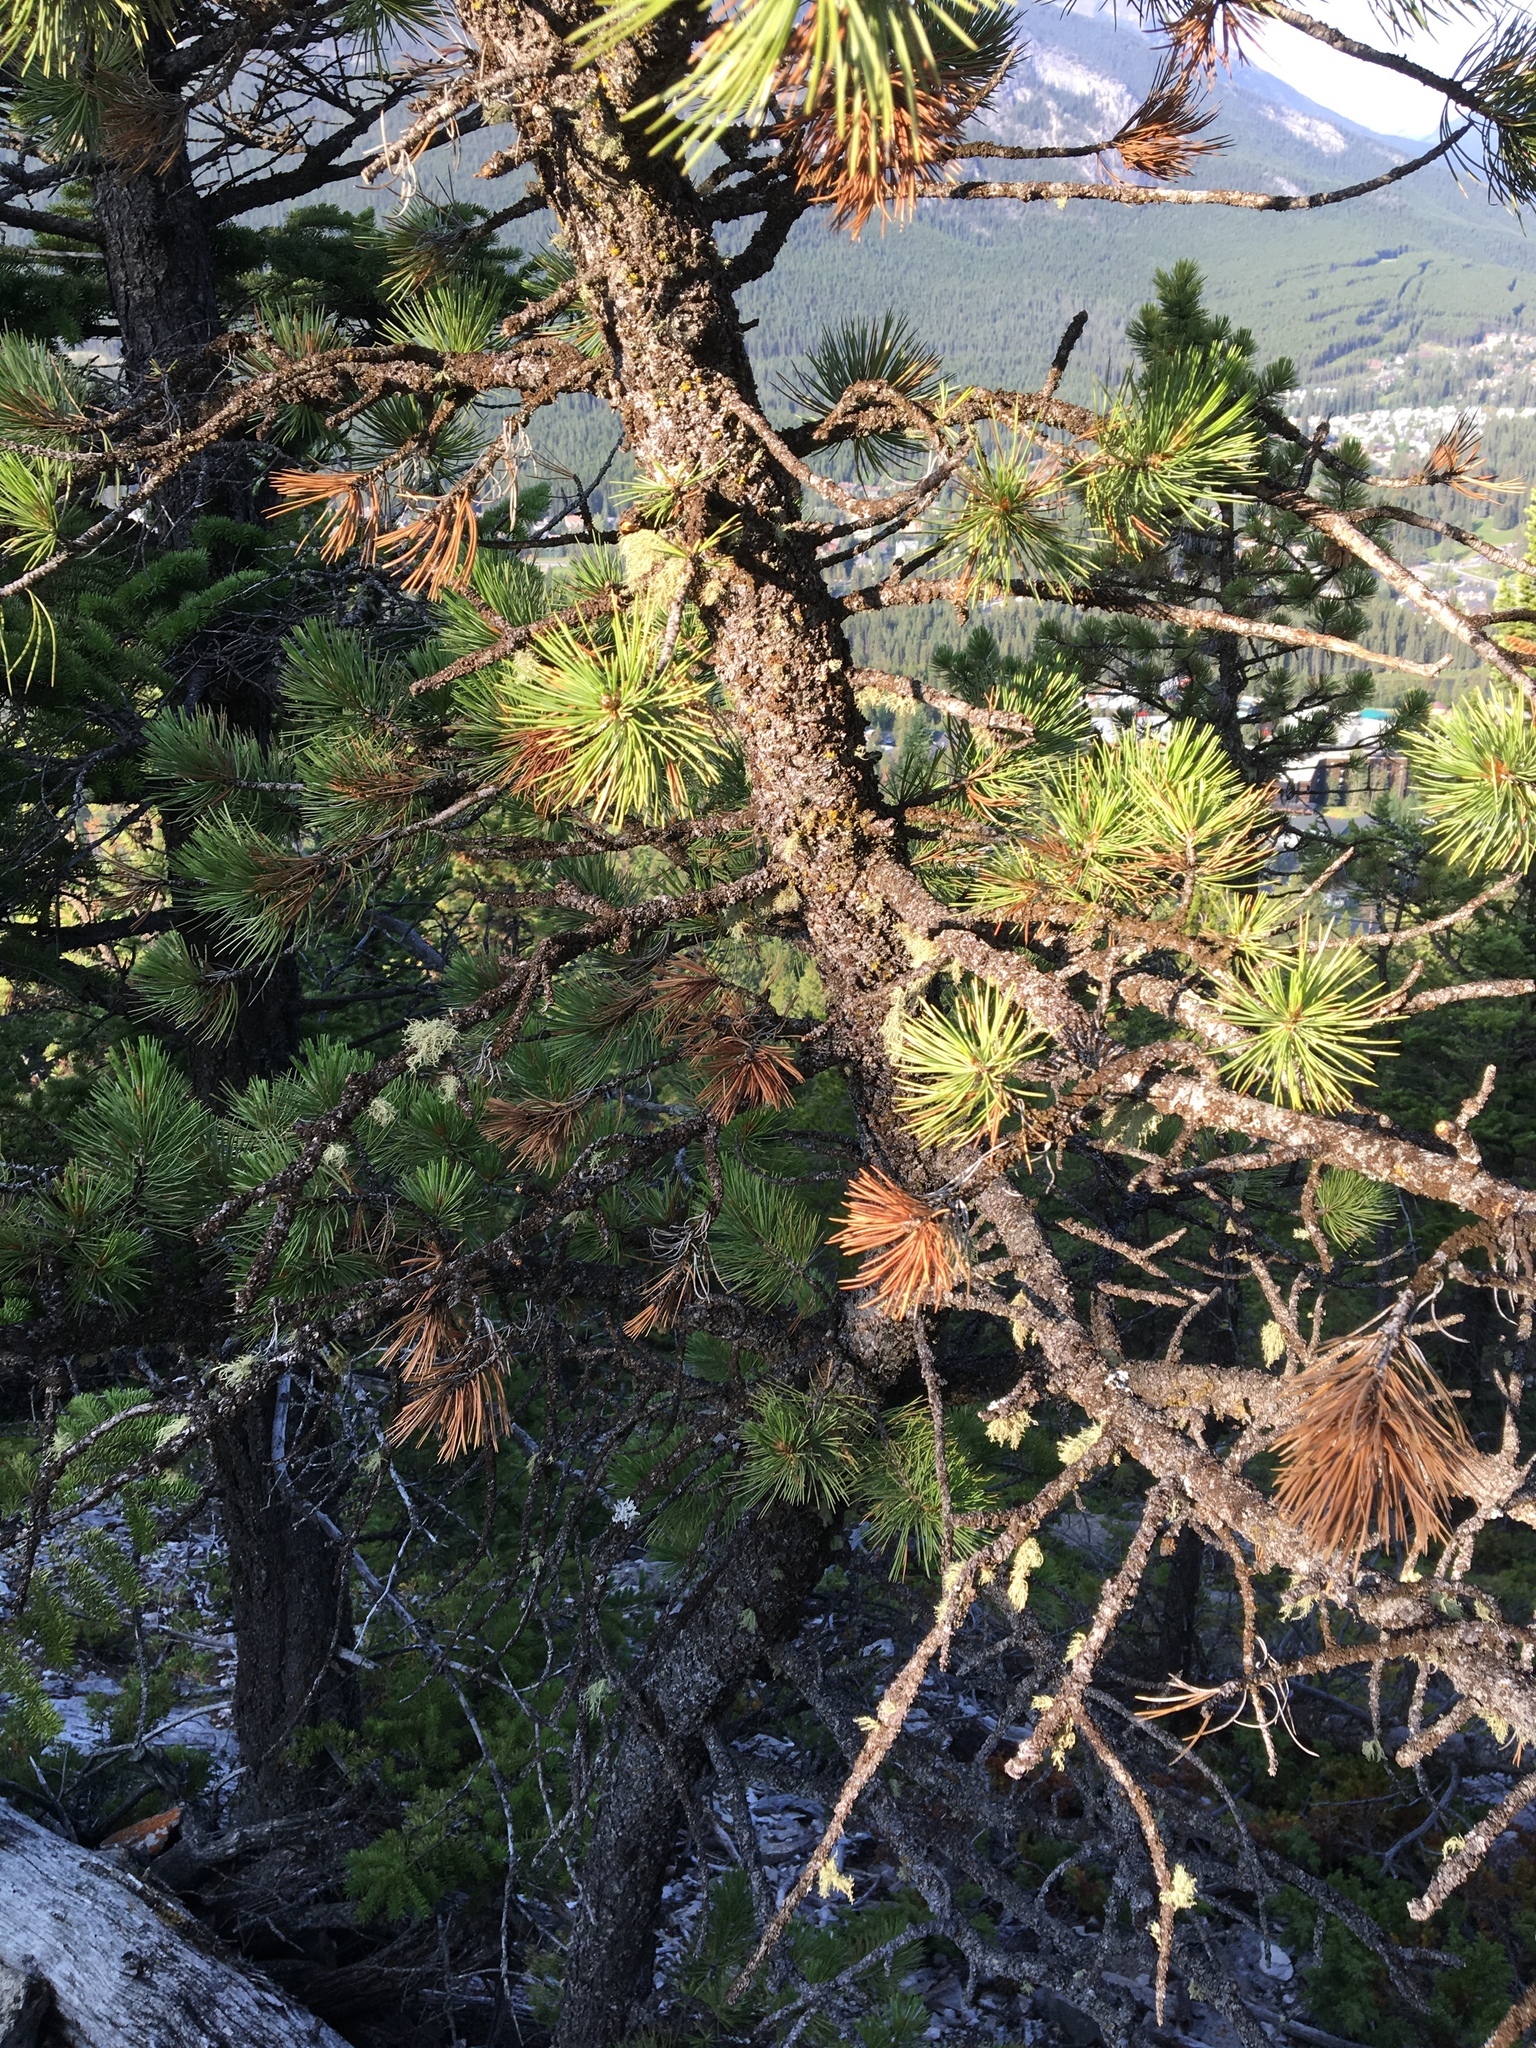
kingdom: Plantae
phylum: Tracheophyta
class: Pinopsida
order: Pinales
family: Pinaceae
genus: Pinus
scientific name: Pinus flexilis
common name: Limber pine
